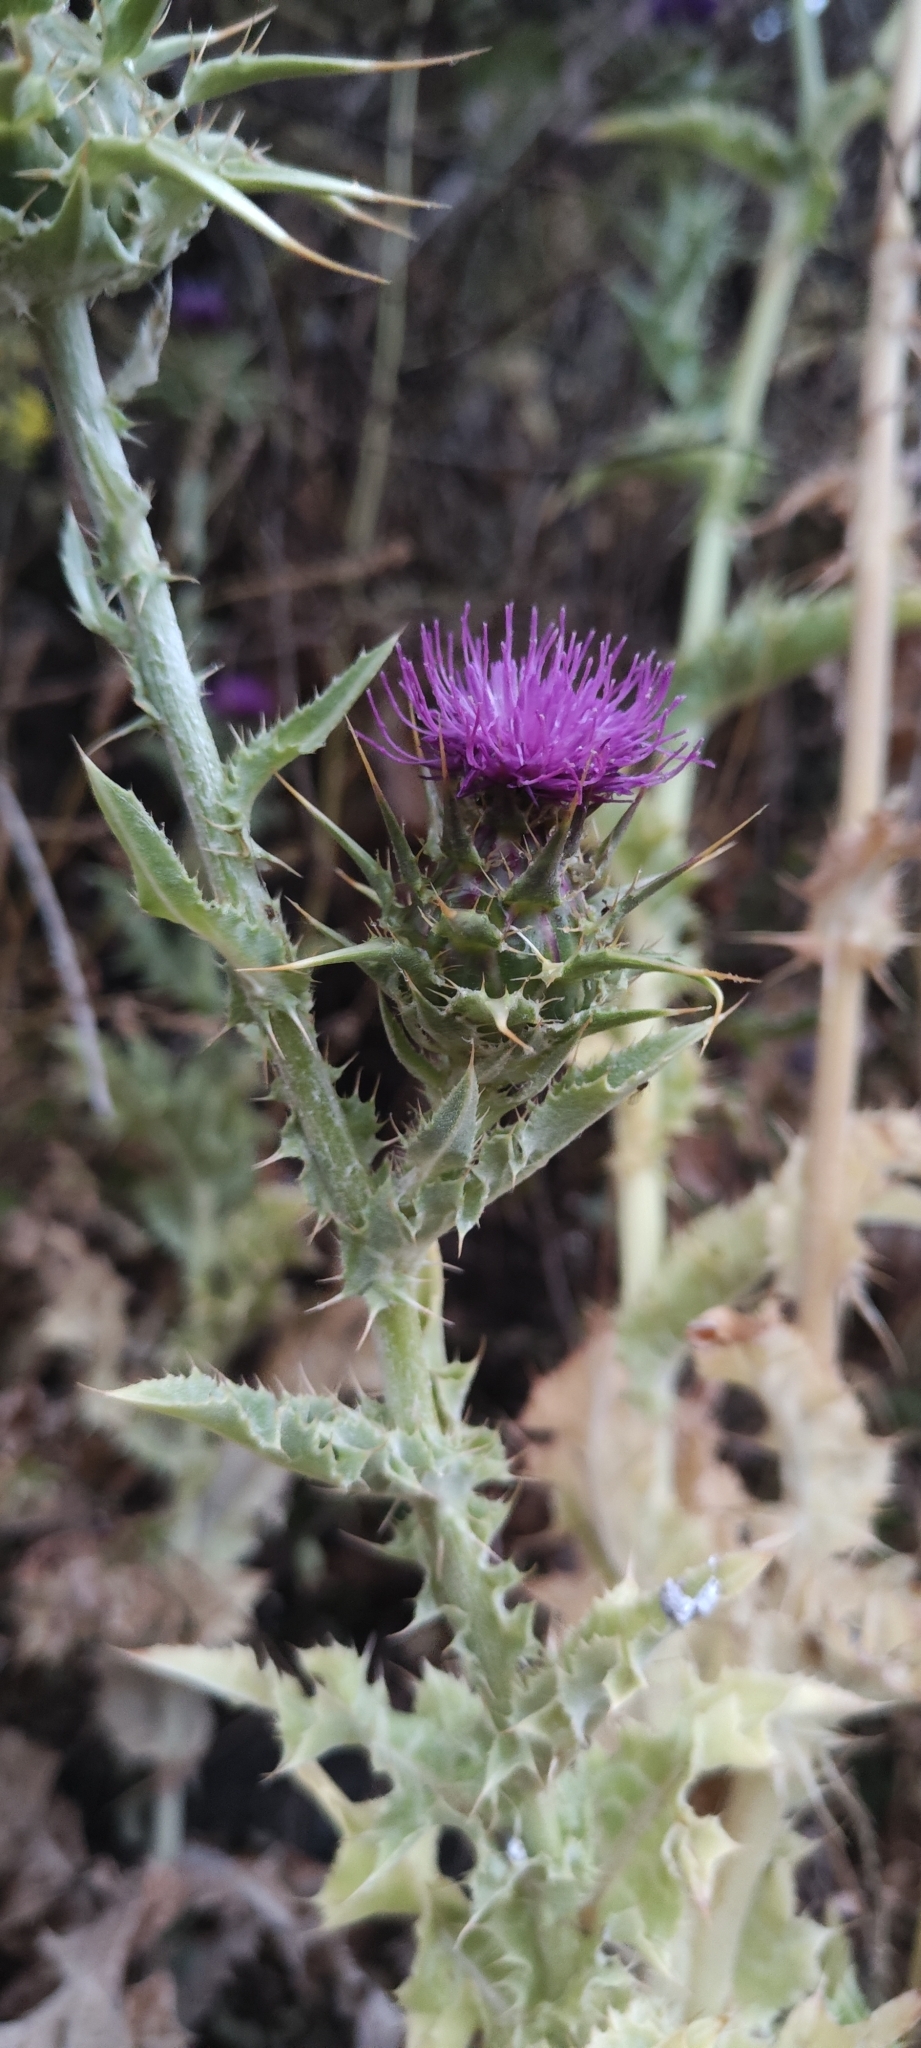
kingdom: Plantae
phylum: Tracheophyta
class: Magnoliopsida
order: Asterales
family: Asteraceae
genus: Silybum
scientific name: Silybum marianum
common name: Milk thistle
